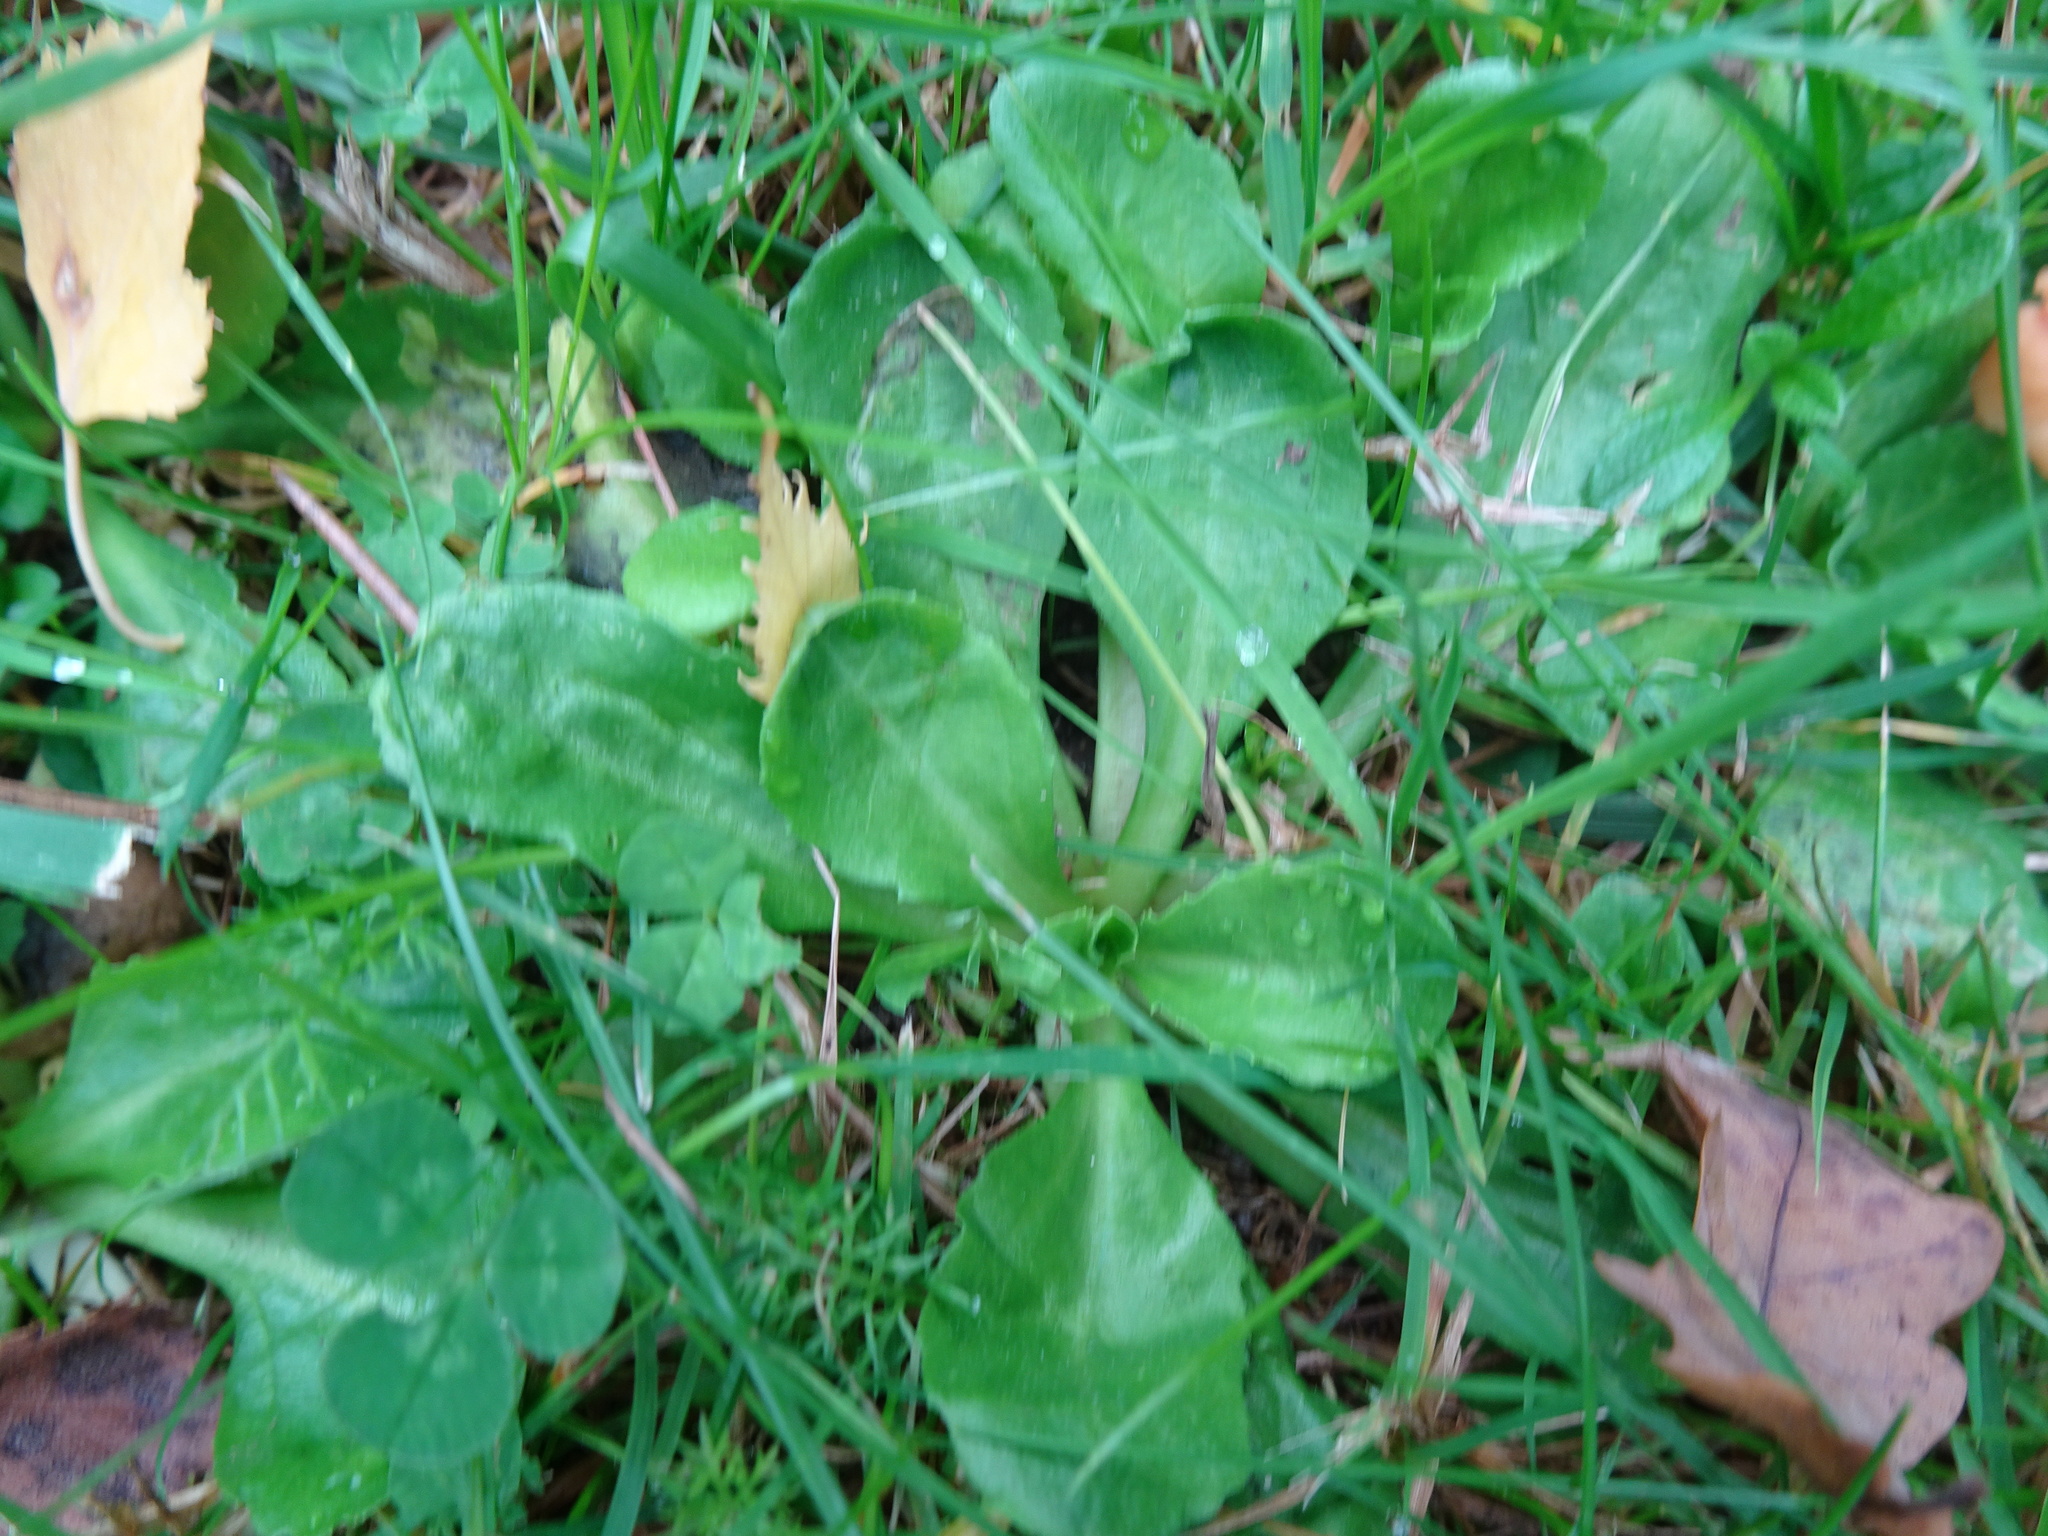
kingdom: Plantae
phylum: Tracheophyta
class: Magnoliopsida
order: Asterales
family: Asteraceae
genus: Bellis
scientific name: Bellis perennis
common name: Lawndaisy
